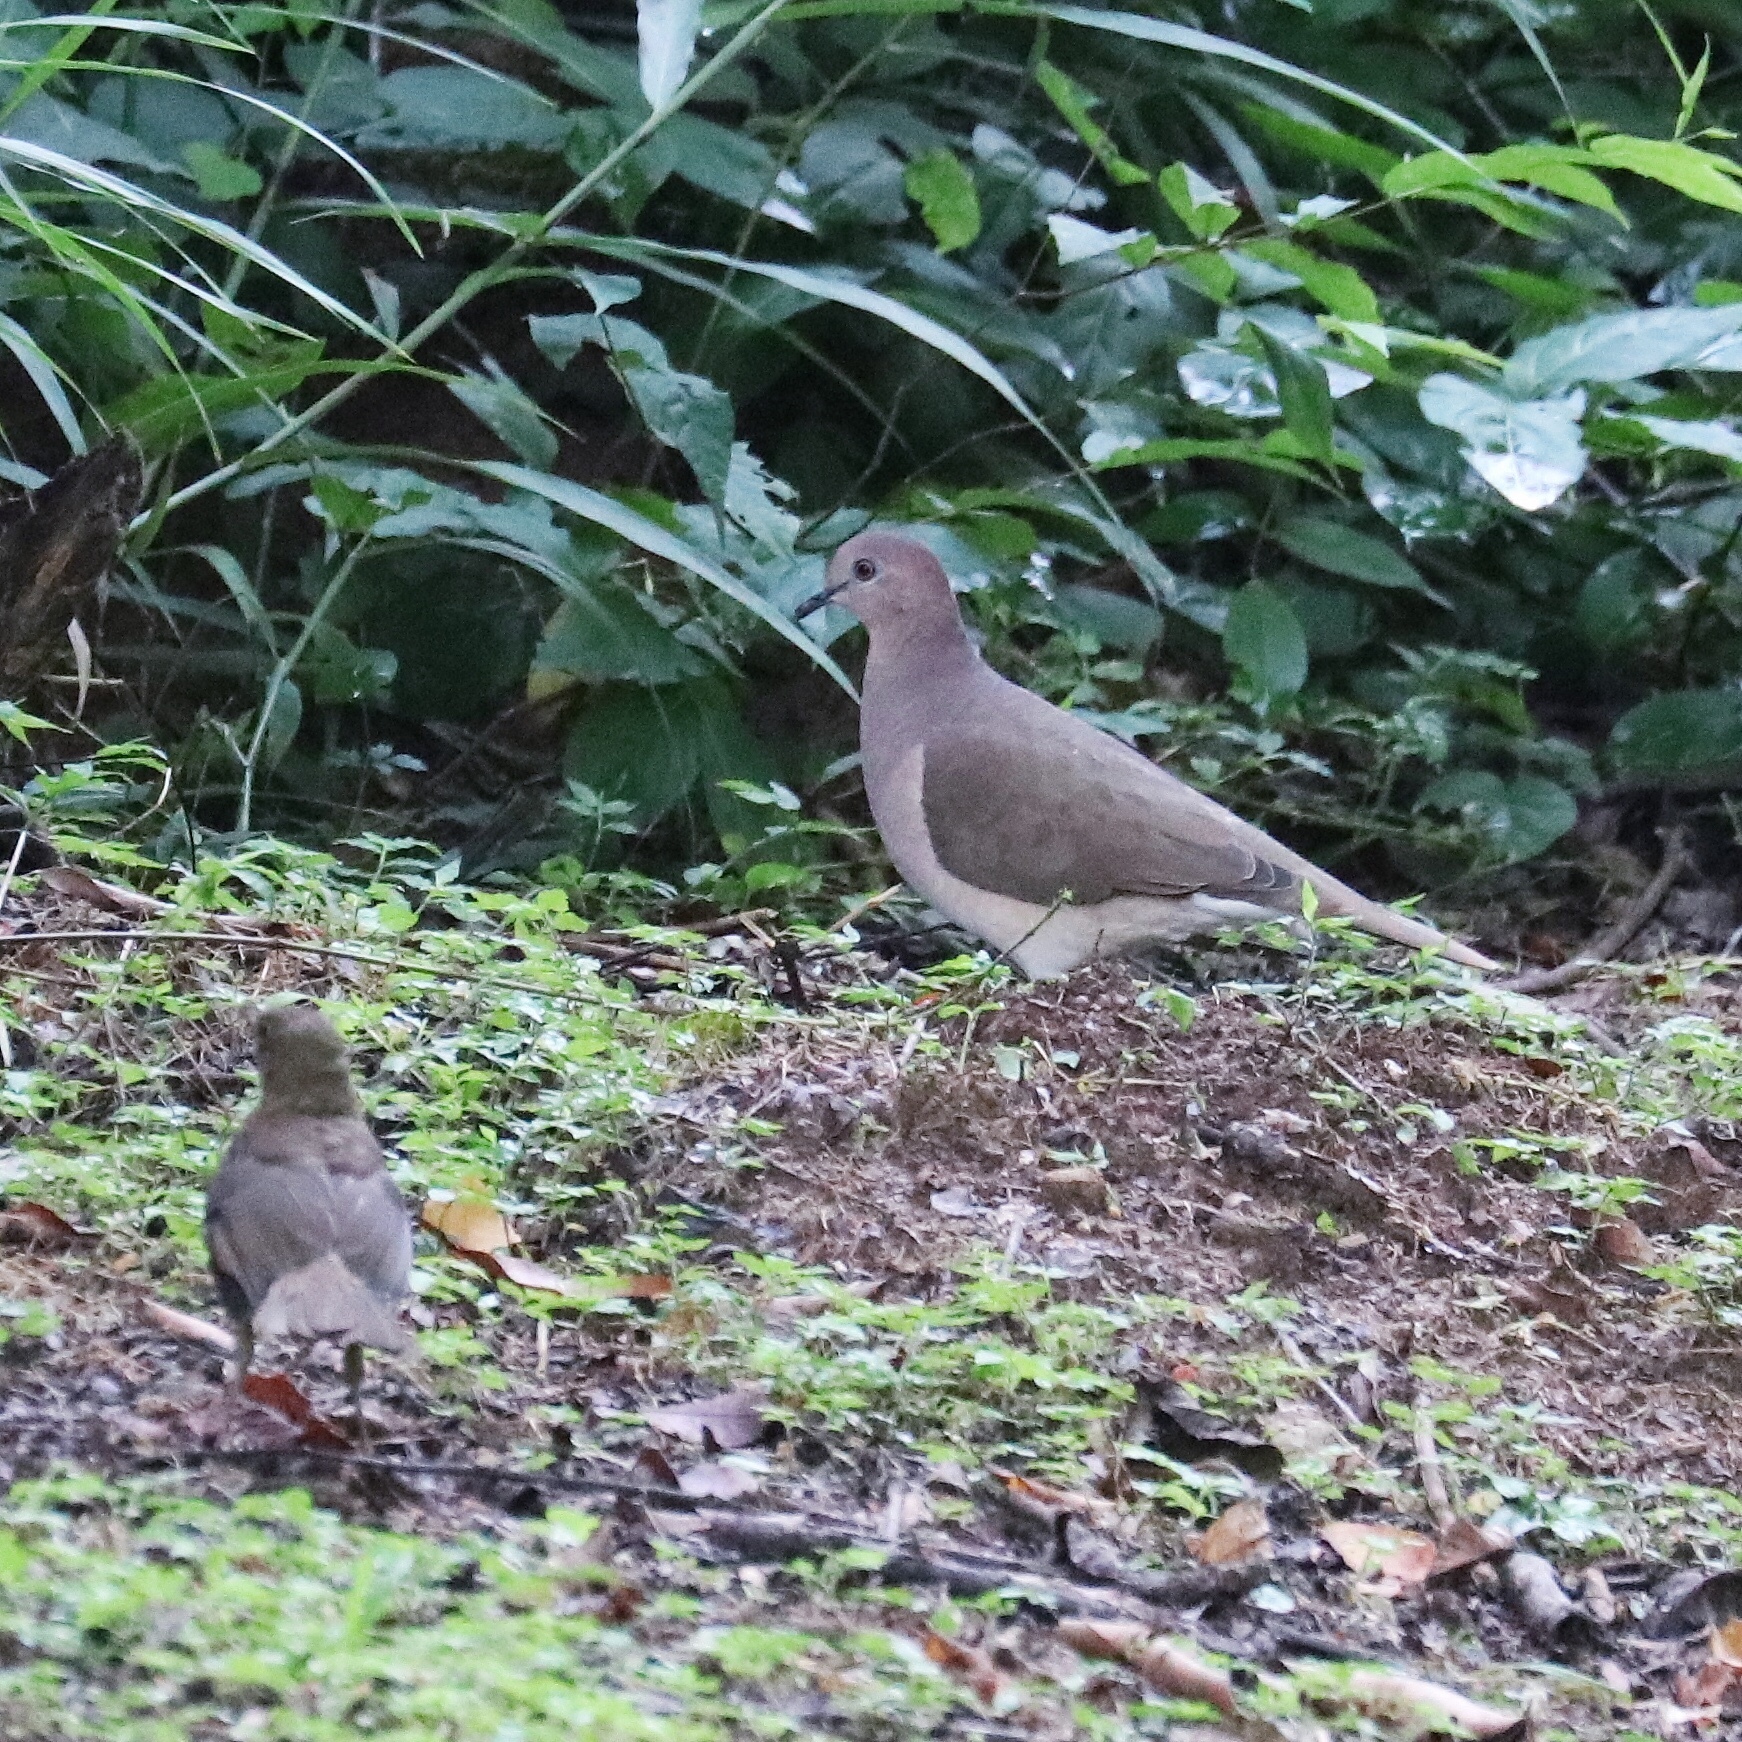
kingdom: Animalia
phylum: Chordata
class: Aves
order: Columbiformes
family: Columbidae
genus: Leptotila
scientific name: Leptotila verreauxi
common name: White-tipped dove
